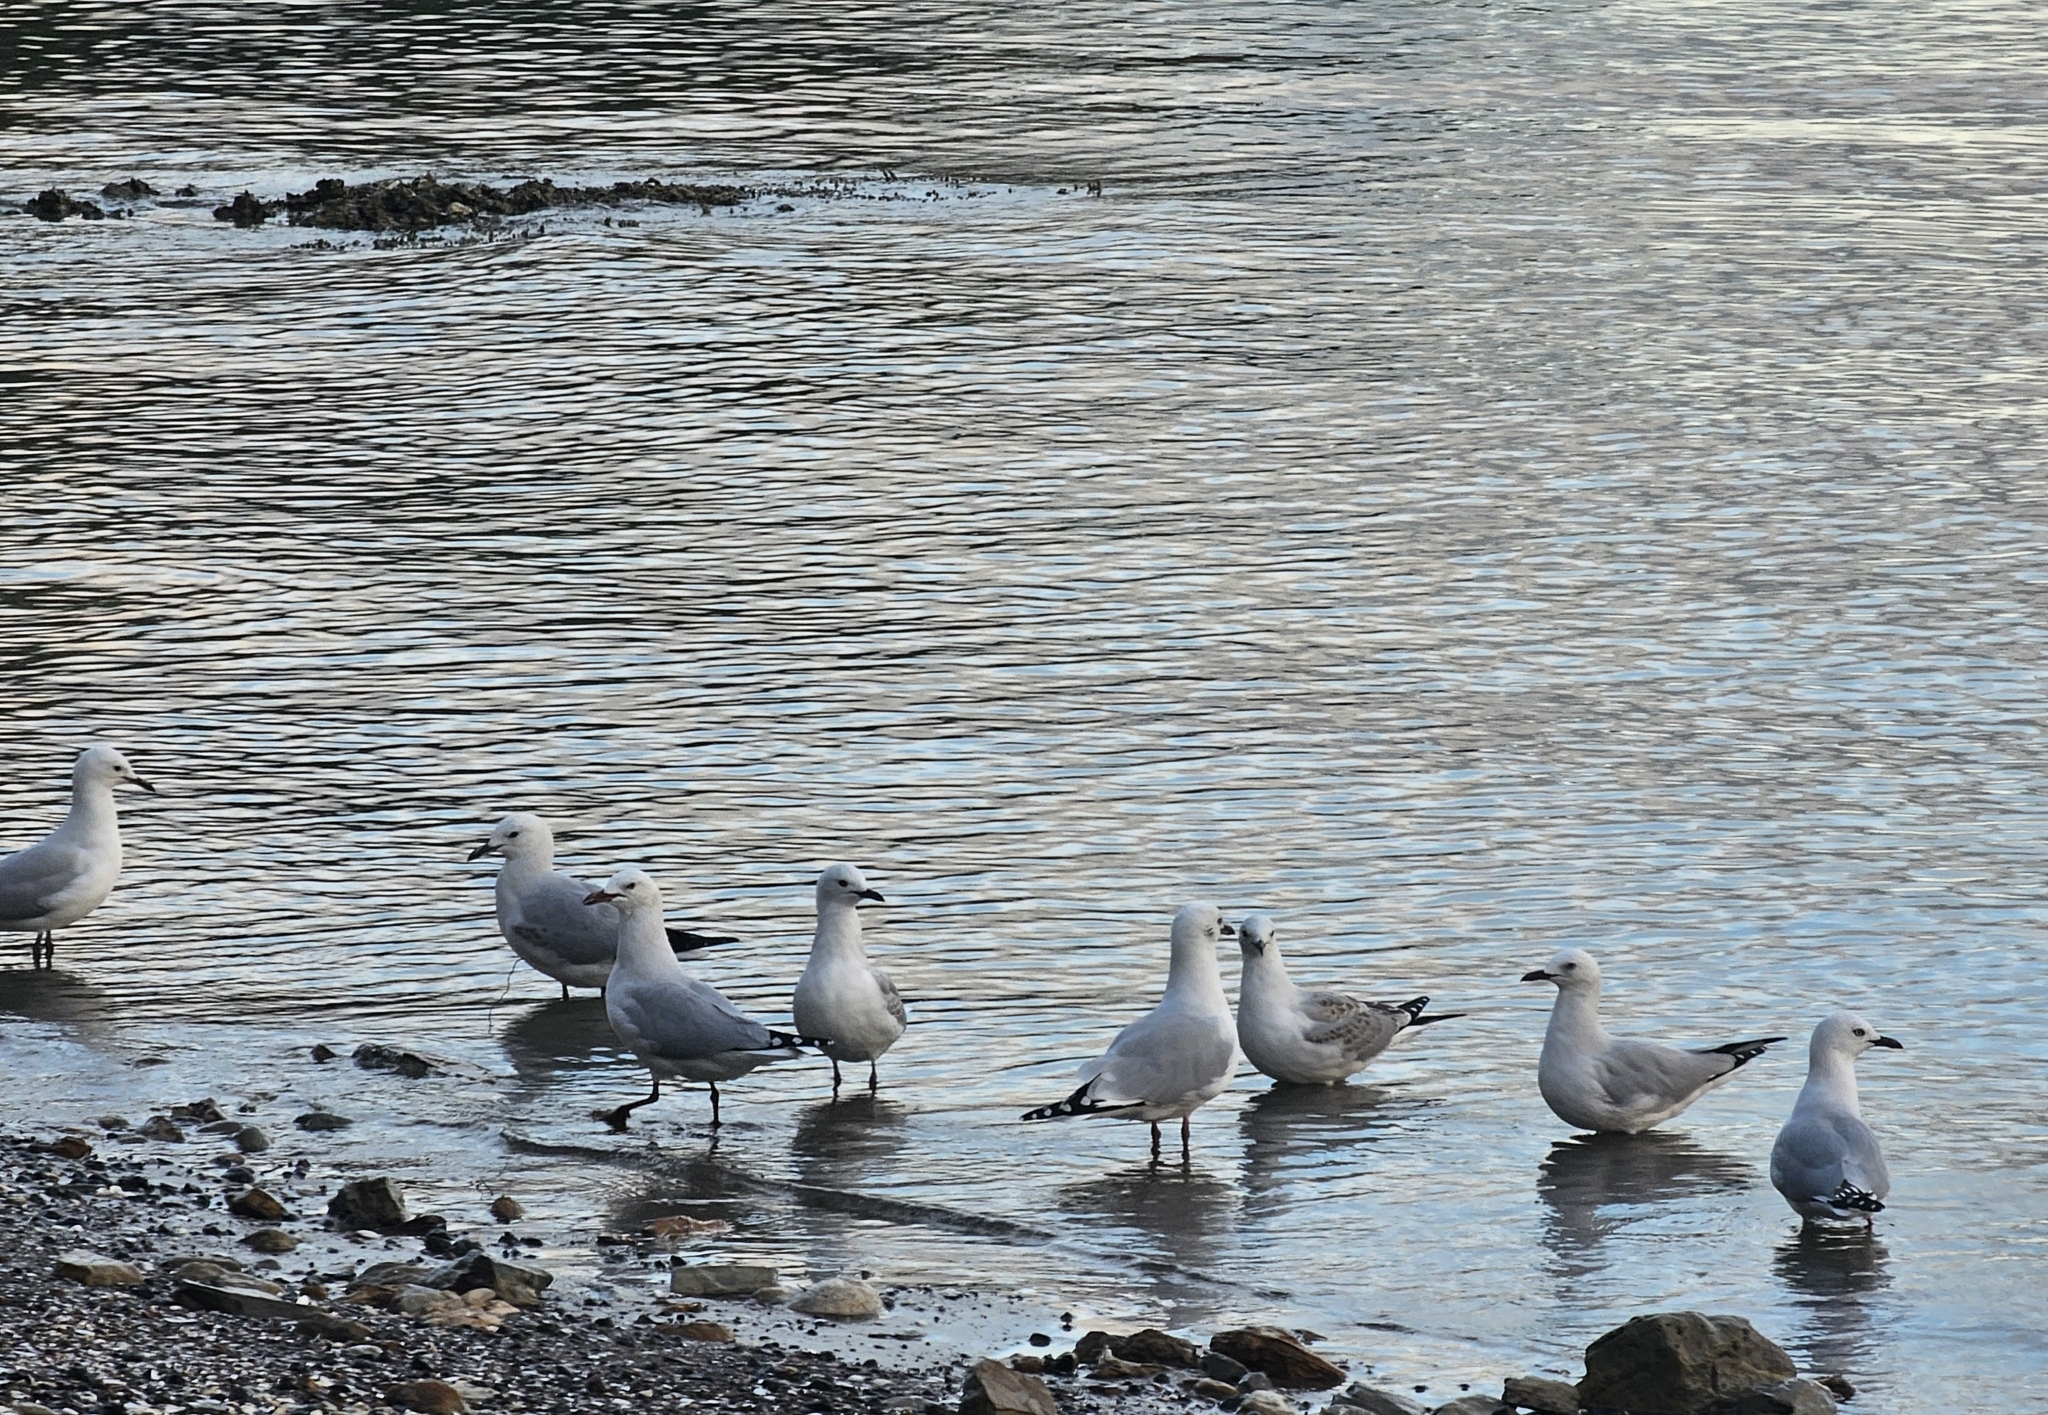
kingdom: Animalia
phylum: Chordata
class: Aves
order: Charadriiformes
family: Laridae
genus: Chroicocephalus
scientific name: Chroicocephalus novaehollandiae
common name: Silver gull
